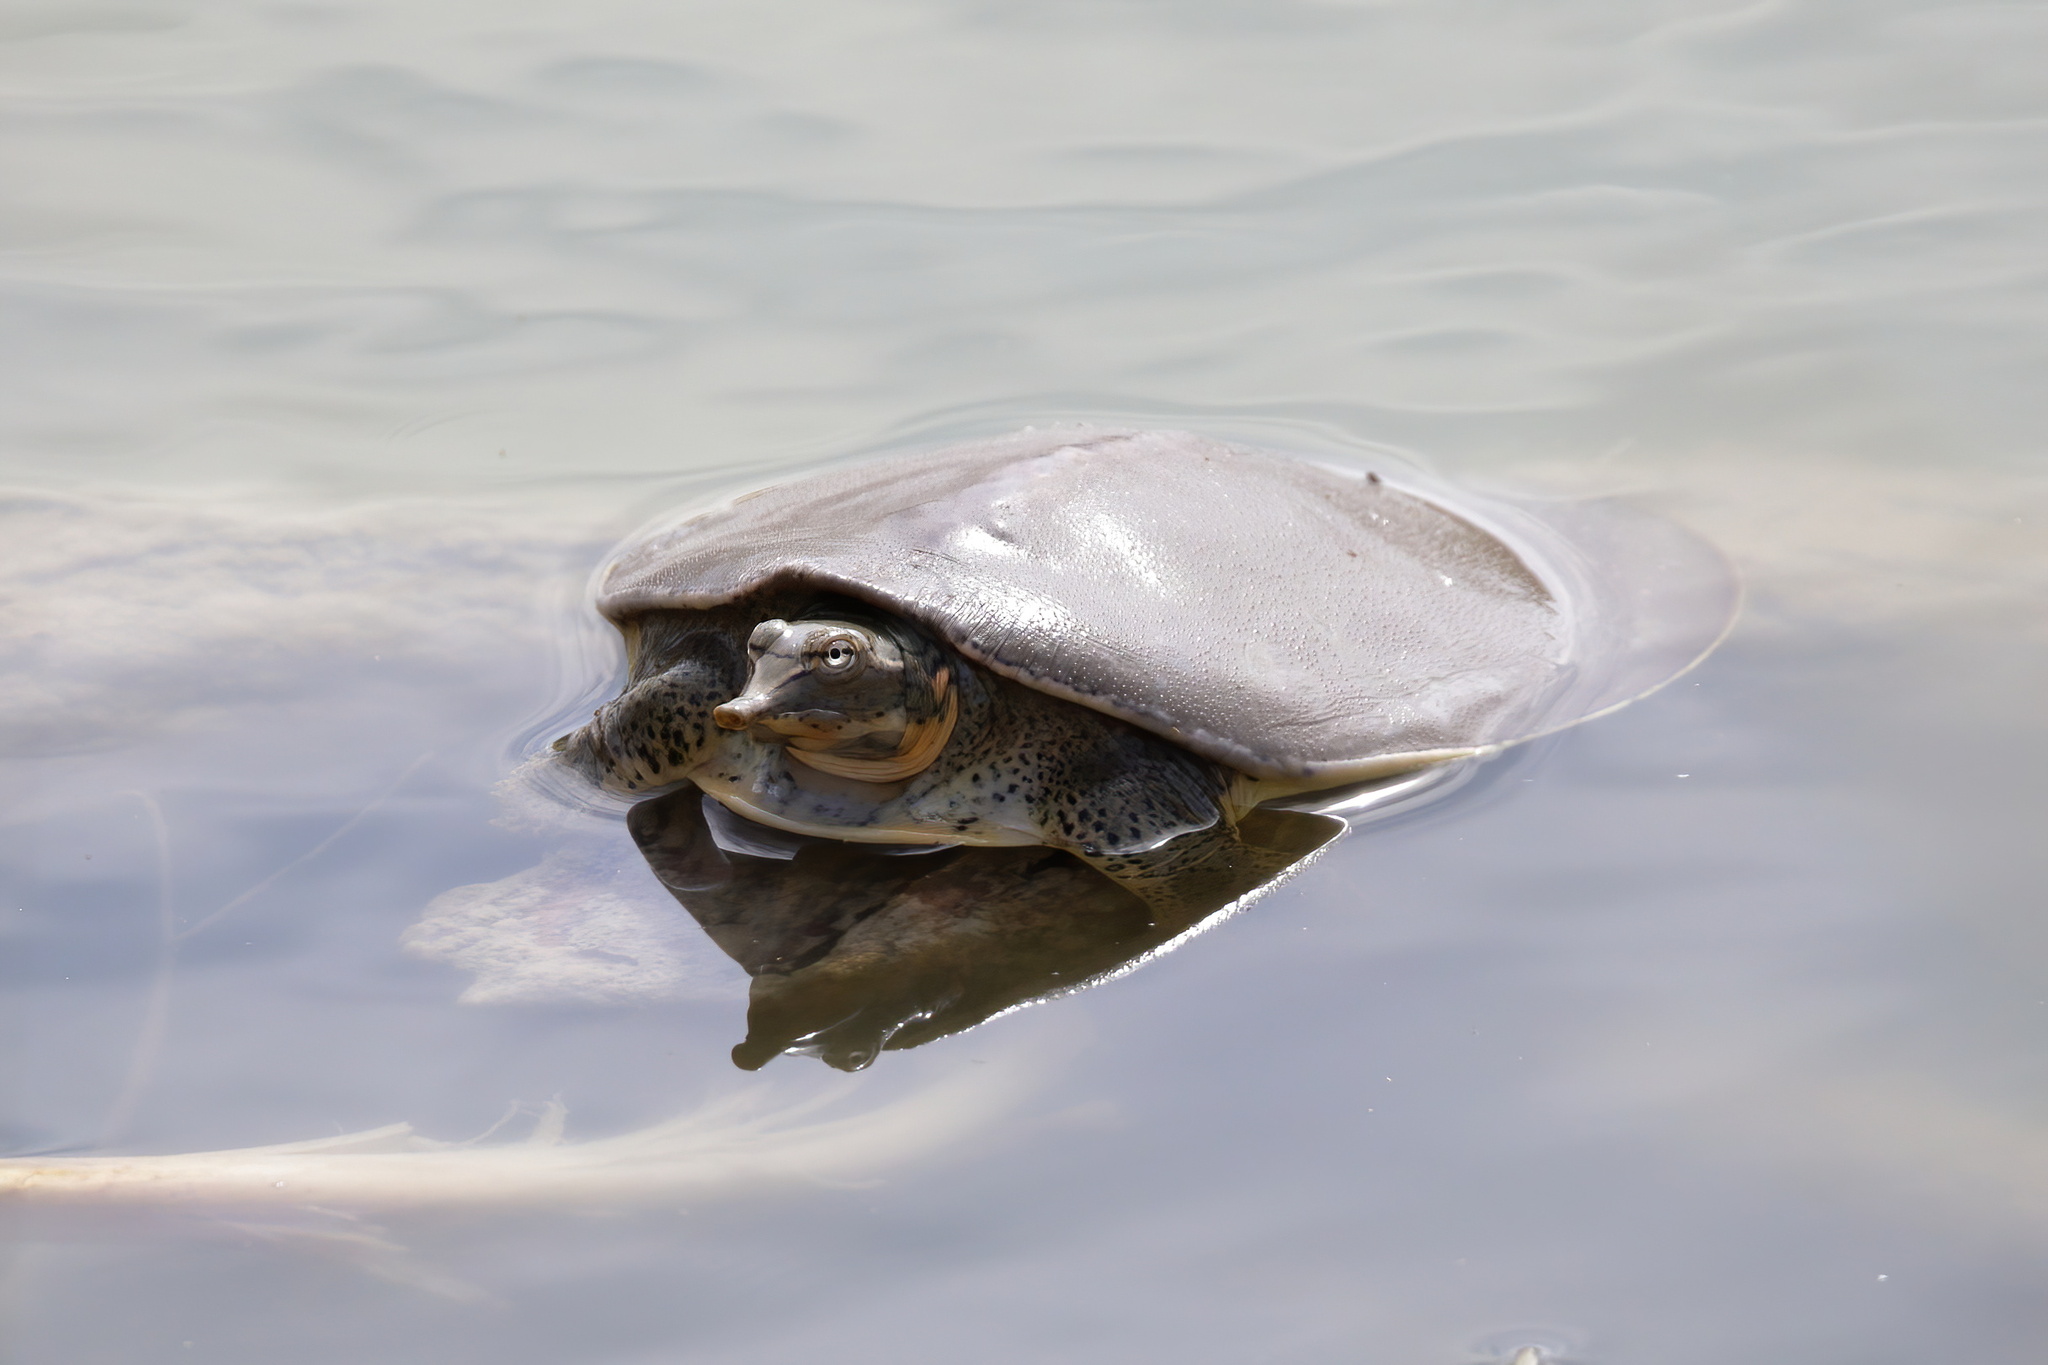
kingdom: Animalia
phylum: Chordata
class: Testudines
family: Trionychidae
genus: Apalone
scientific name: Apalone spinifera
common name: Spiny softshell turtle
